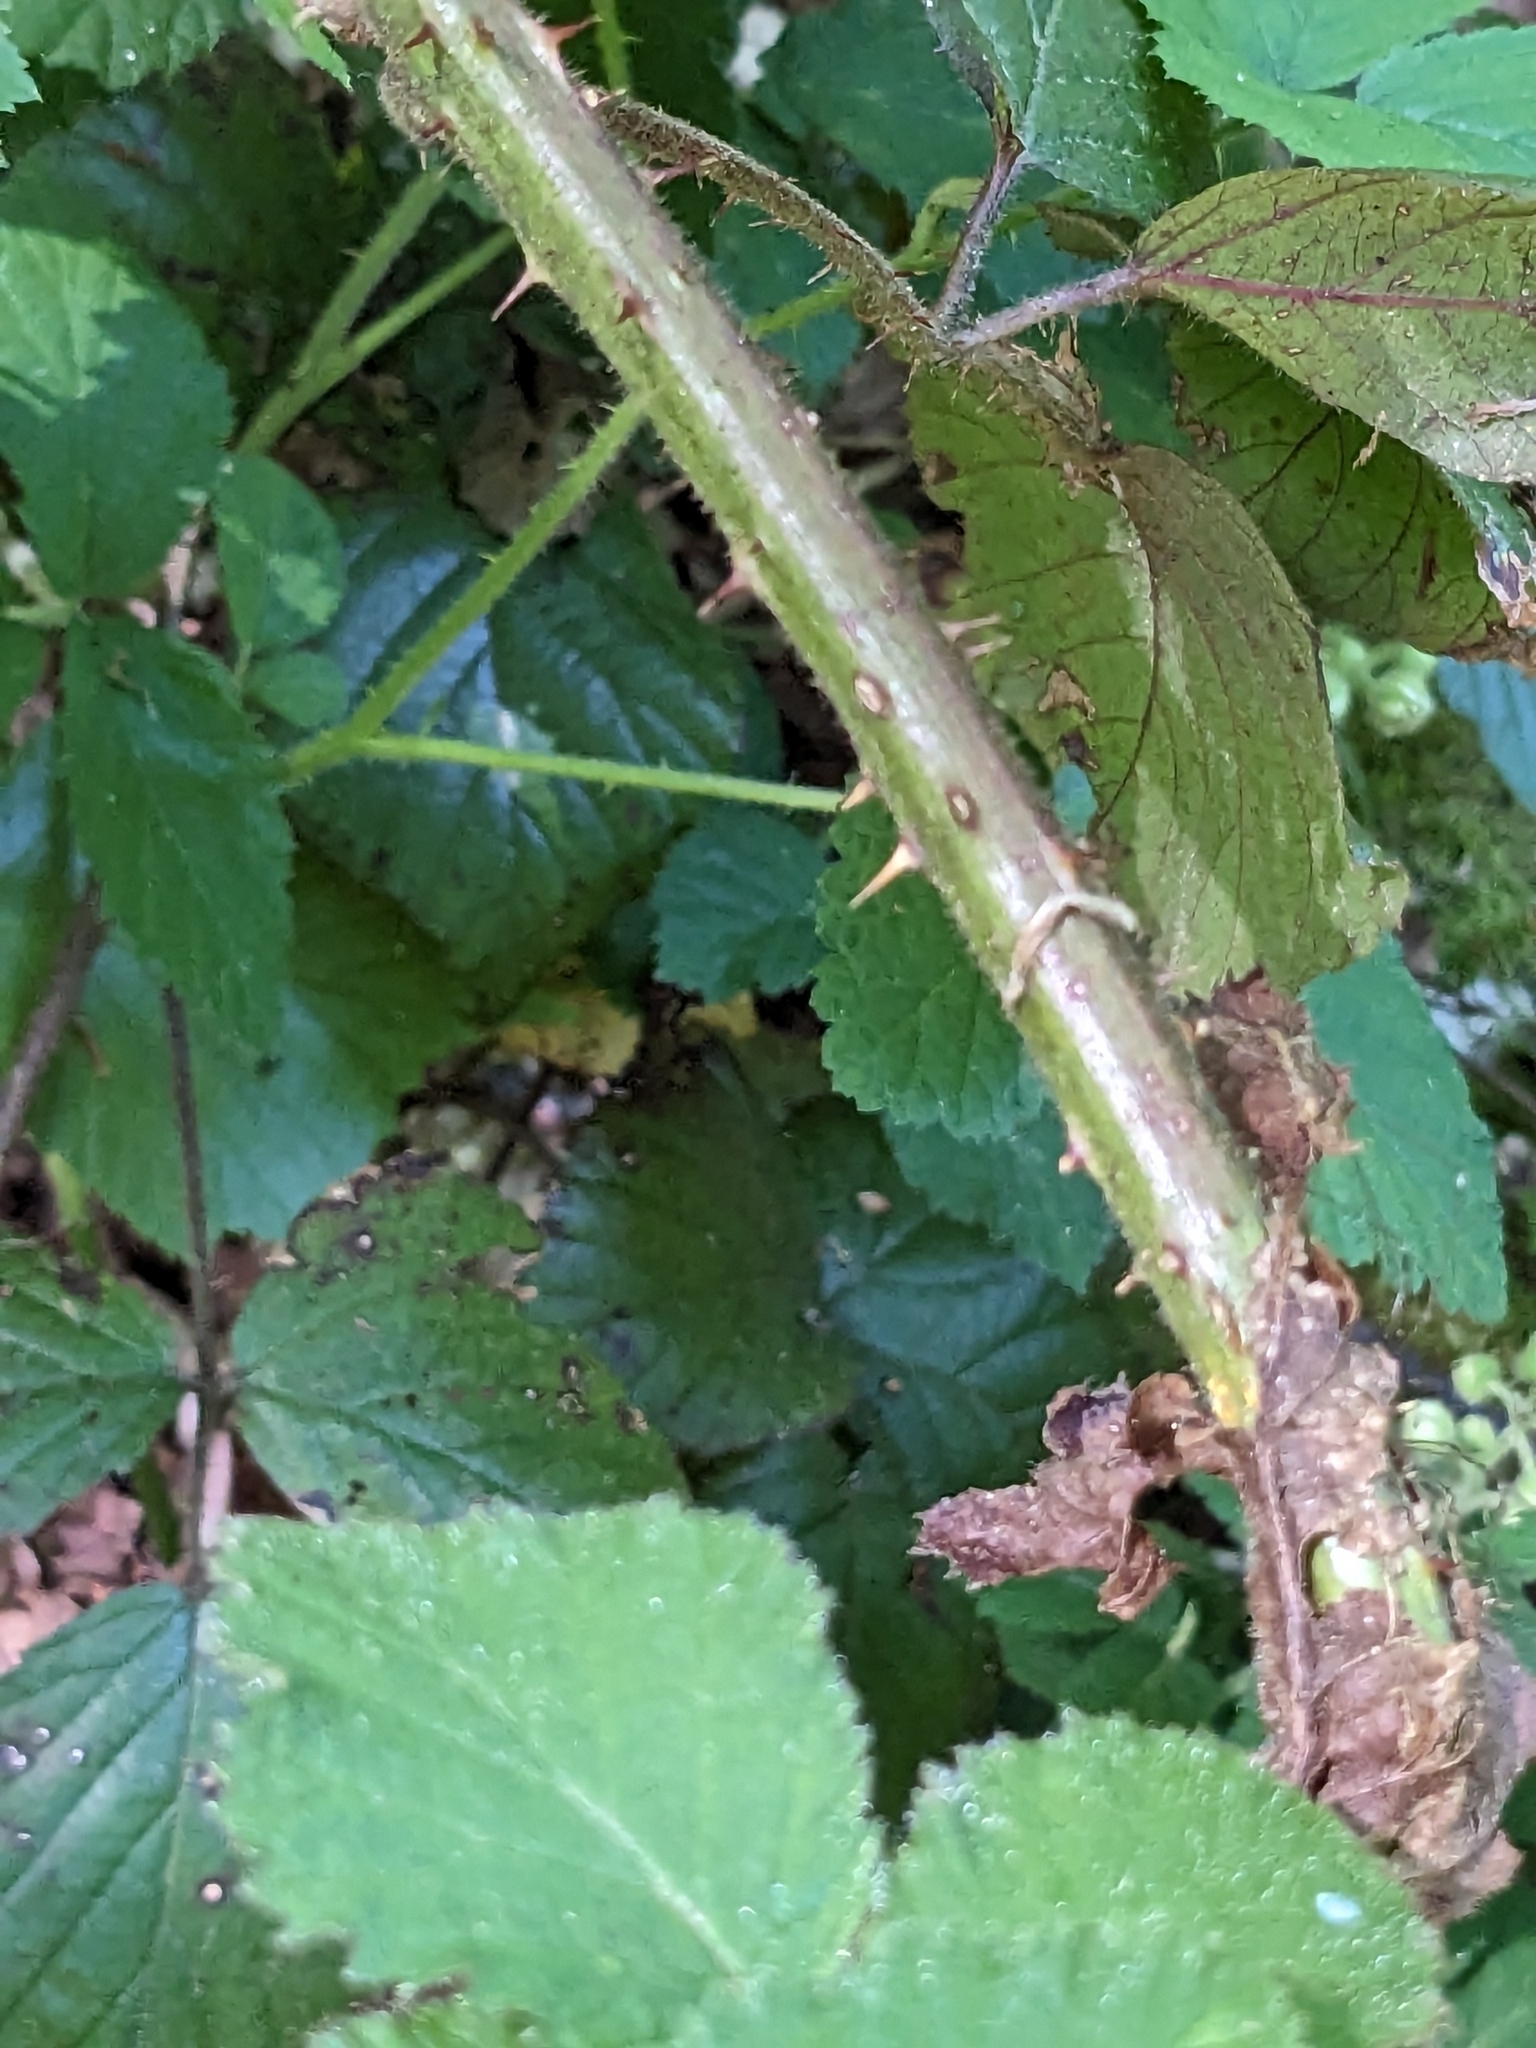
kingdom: Plantae
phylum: Tracheophyta
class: Magnoliopsida
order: Rosales
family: Rosaceae
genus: Rubus
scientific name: Rubus caesius
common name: Dewberry
